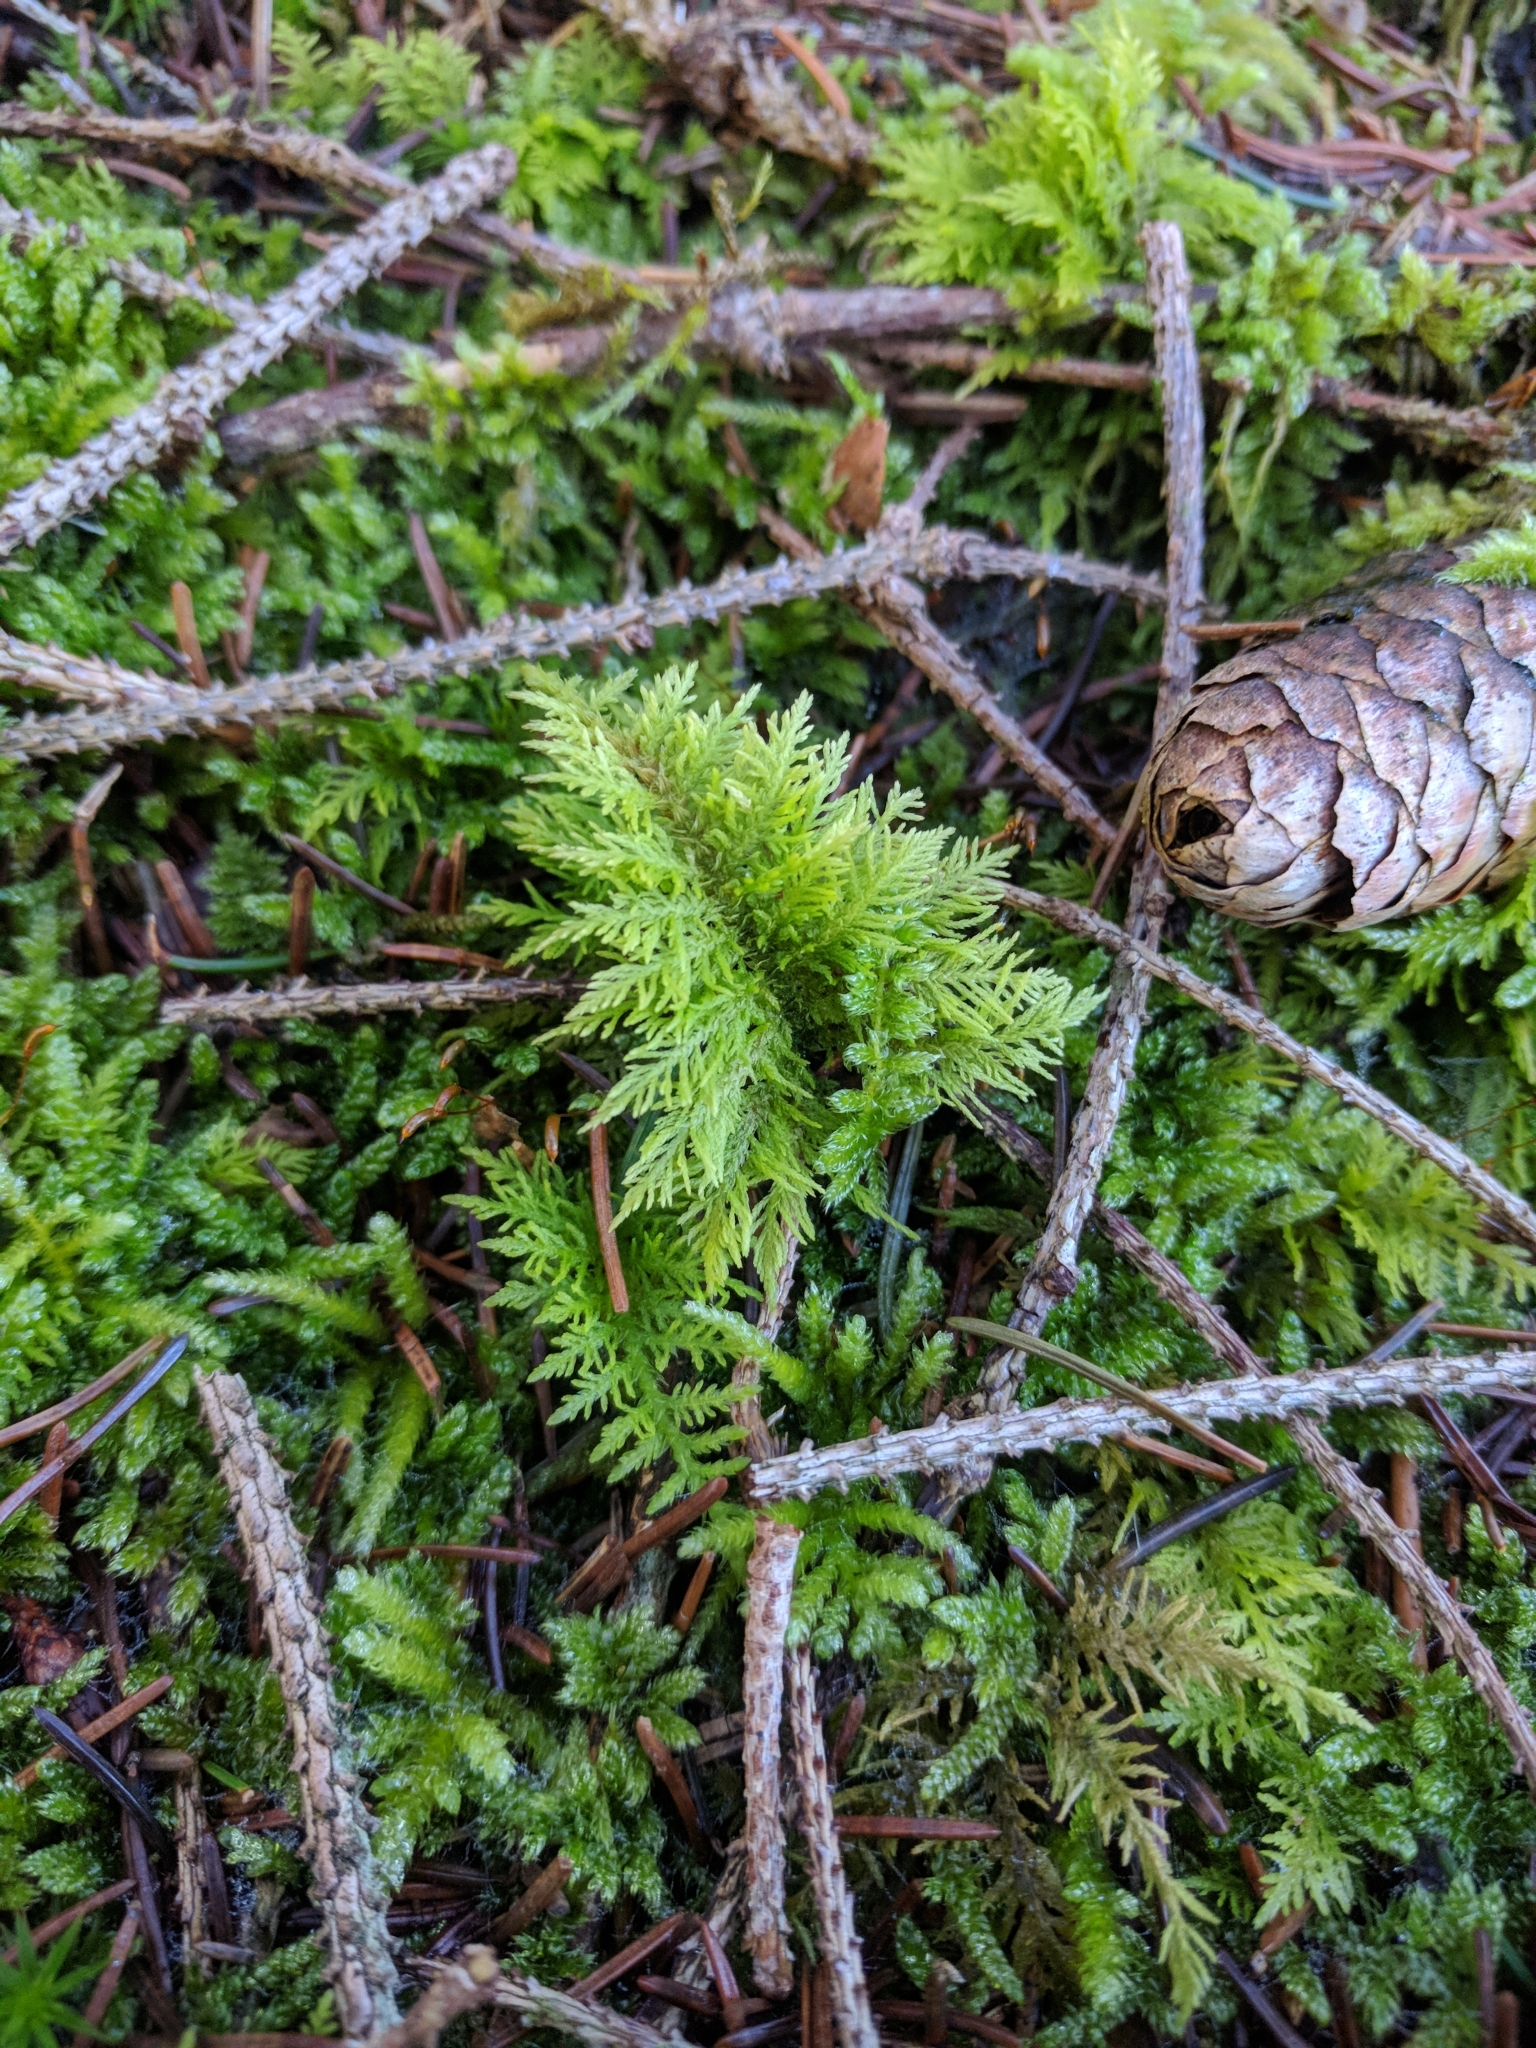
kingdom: Plantae
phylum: Bryophyta
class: Bryopsida
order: Hypnales
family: Thuidiaceae
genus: Thuidium
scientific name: Thuidium tamariscinum
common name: Common tamarisk-moss
